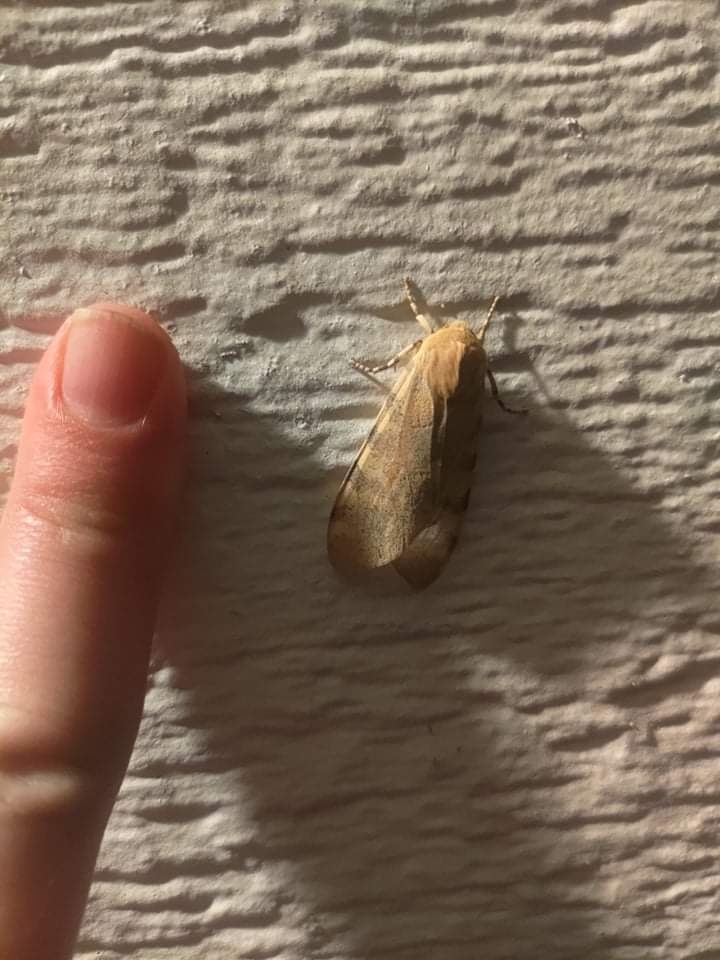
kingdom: Animalia
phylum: Arthropoda
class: Insecta
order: Lepidoptera
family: Erebidae
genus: Hemihyalea
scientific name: Hemihyalea edwardsii
